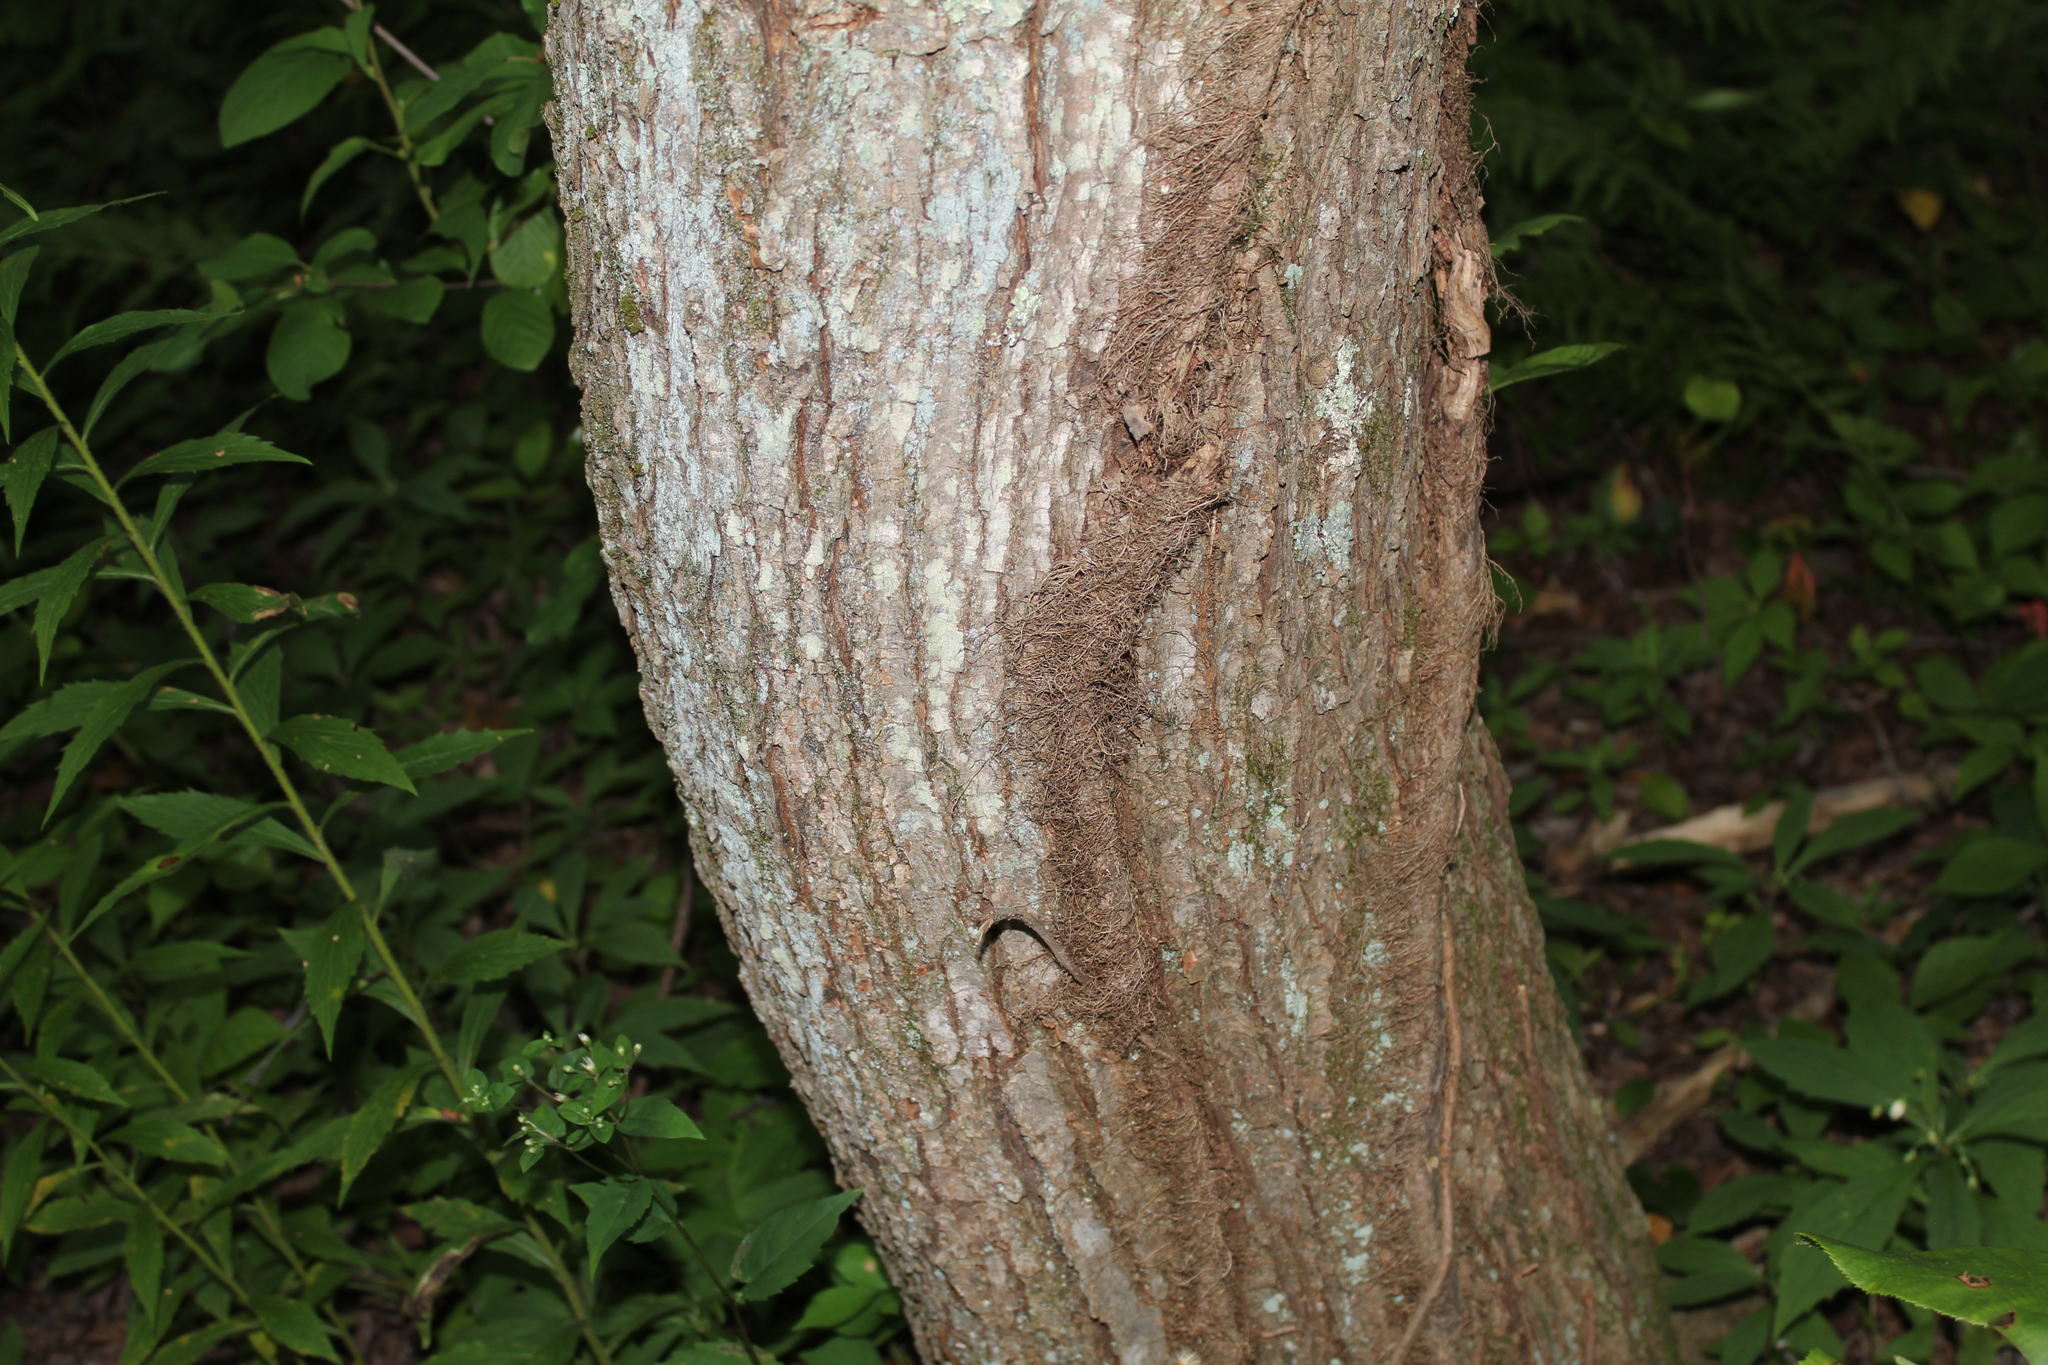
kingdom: Plantae
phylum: Tracheophyta
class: Magnoliopsida
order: Sapindales
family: Anacardiaceae
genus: Toxicodendron
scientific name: Toxicodendron radicans
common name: Poison ivy
